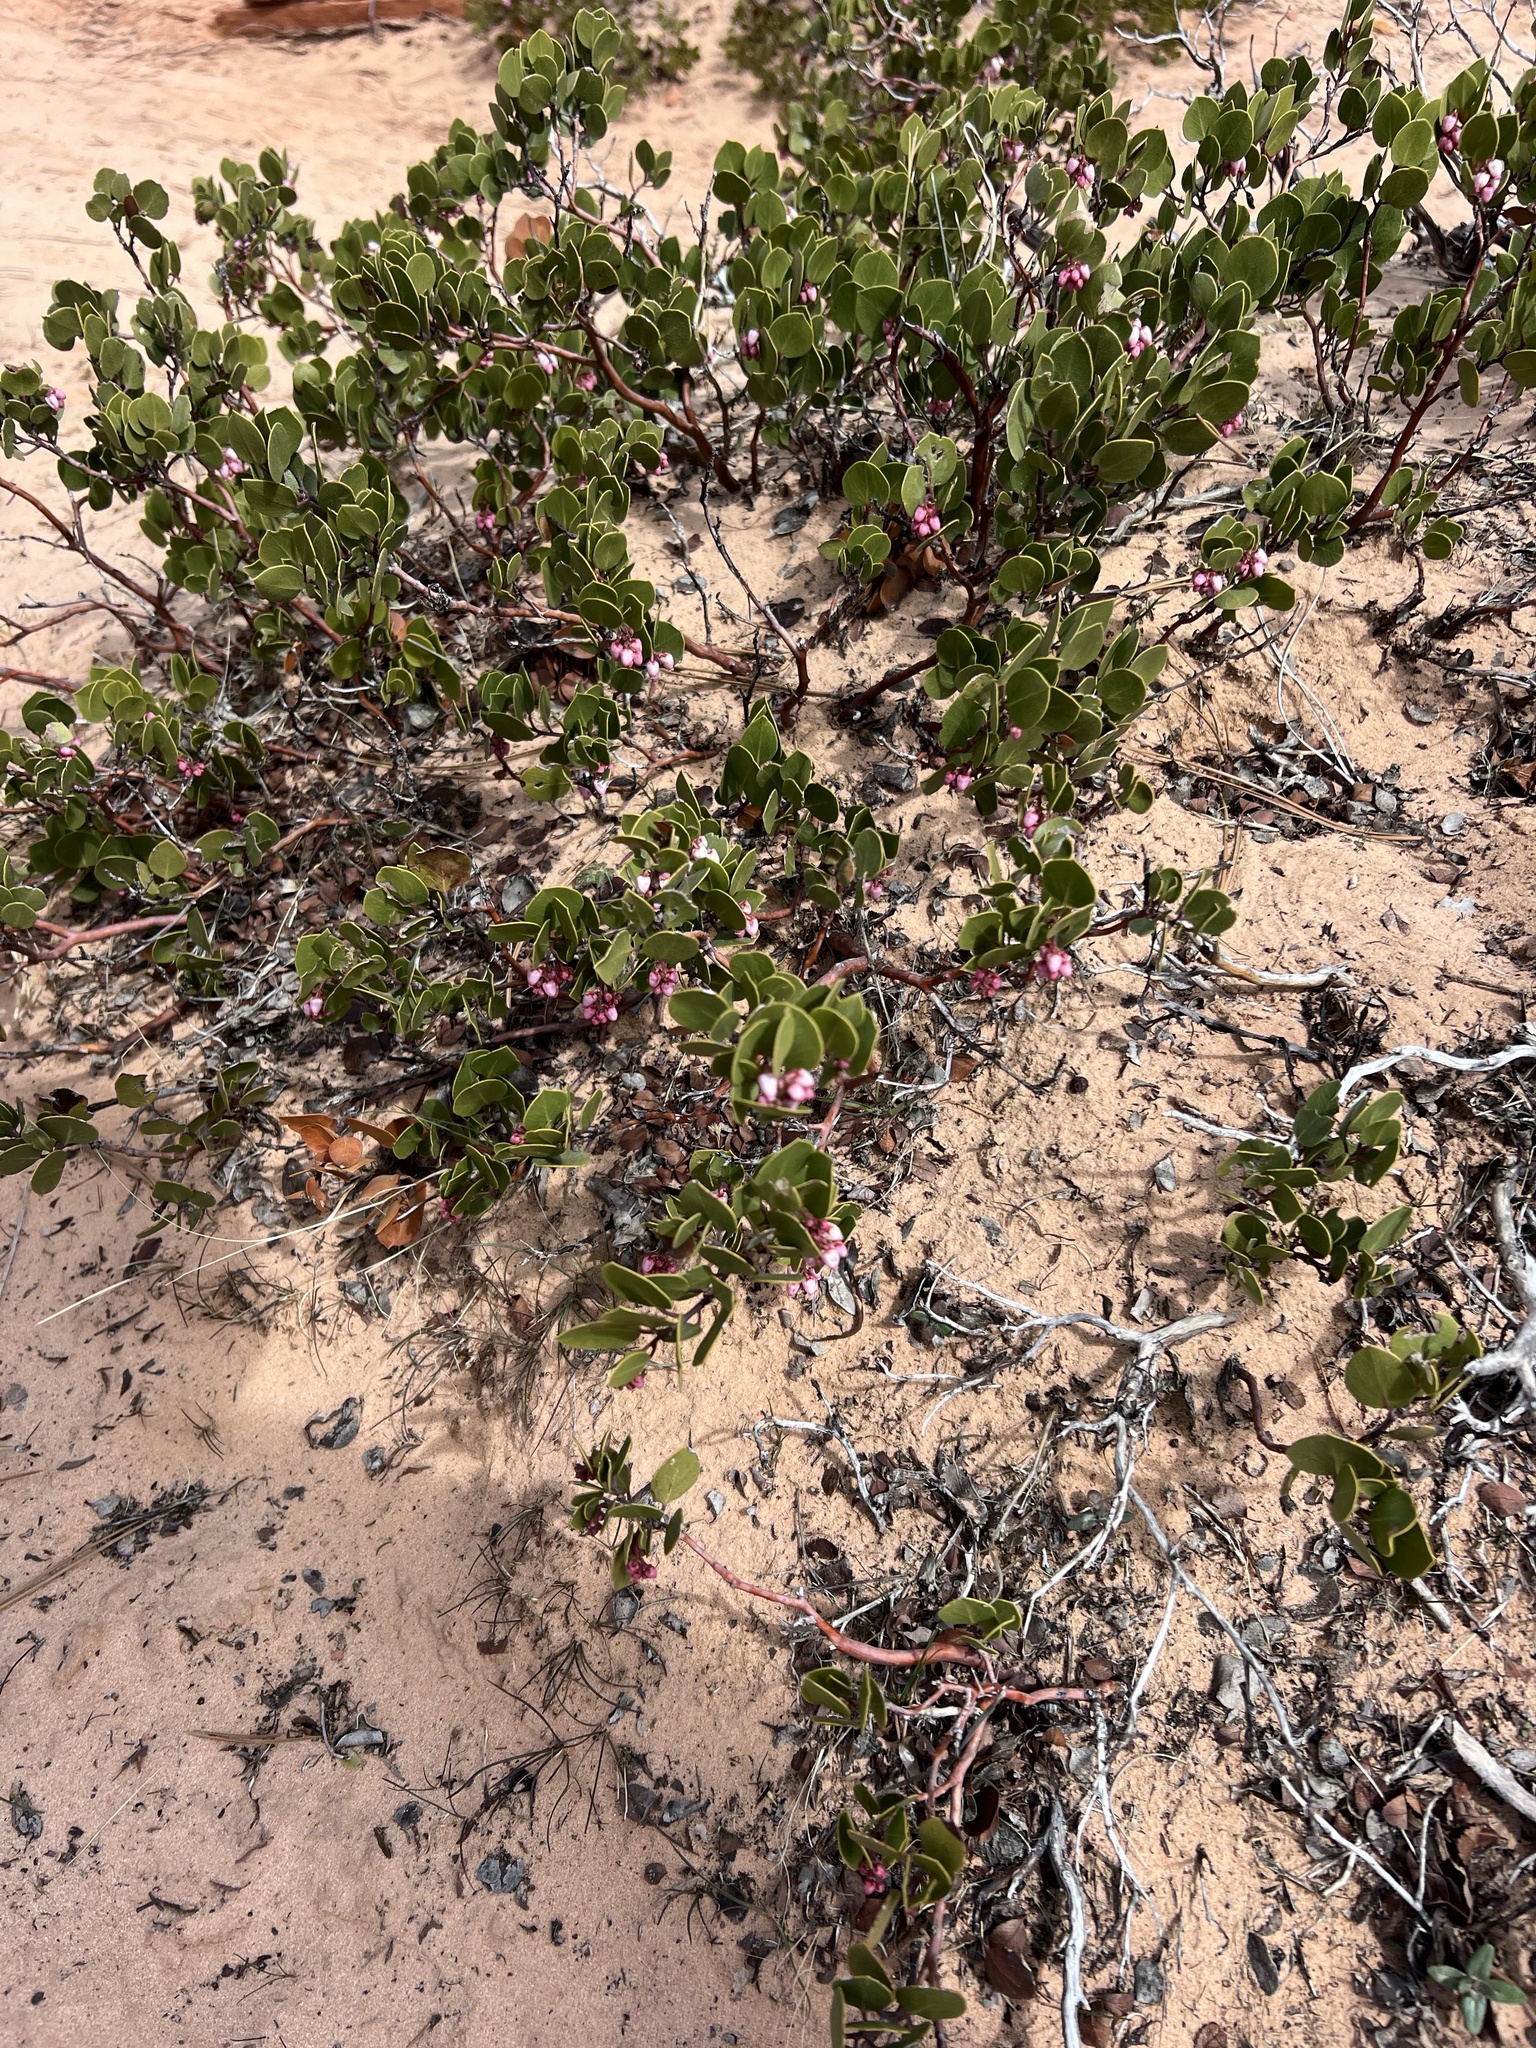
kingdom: Plantae
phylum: Tracheophyta
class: Magnoliopsida
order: Ericales
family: Ericaceae
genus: Arctostaphylos
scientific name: Arctostaphylos patula
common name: Green-leaf manzanita
